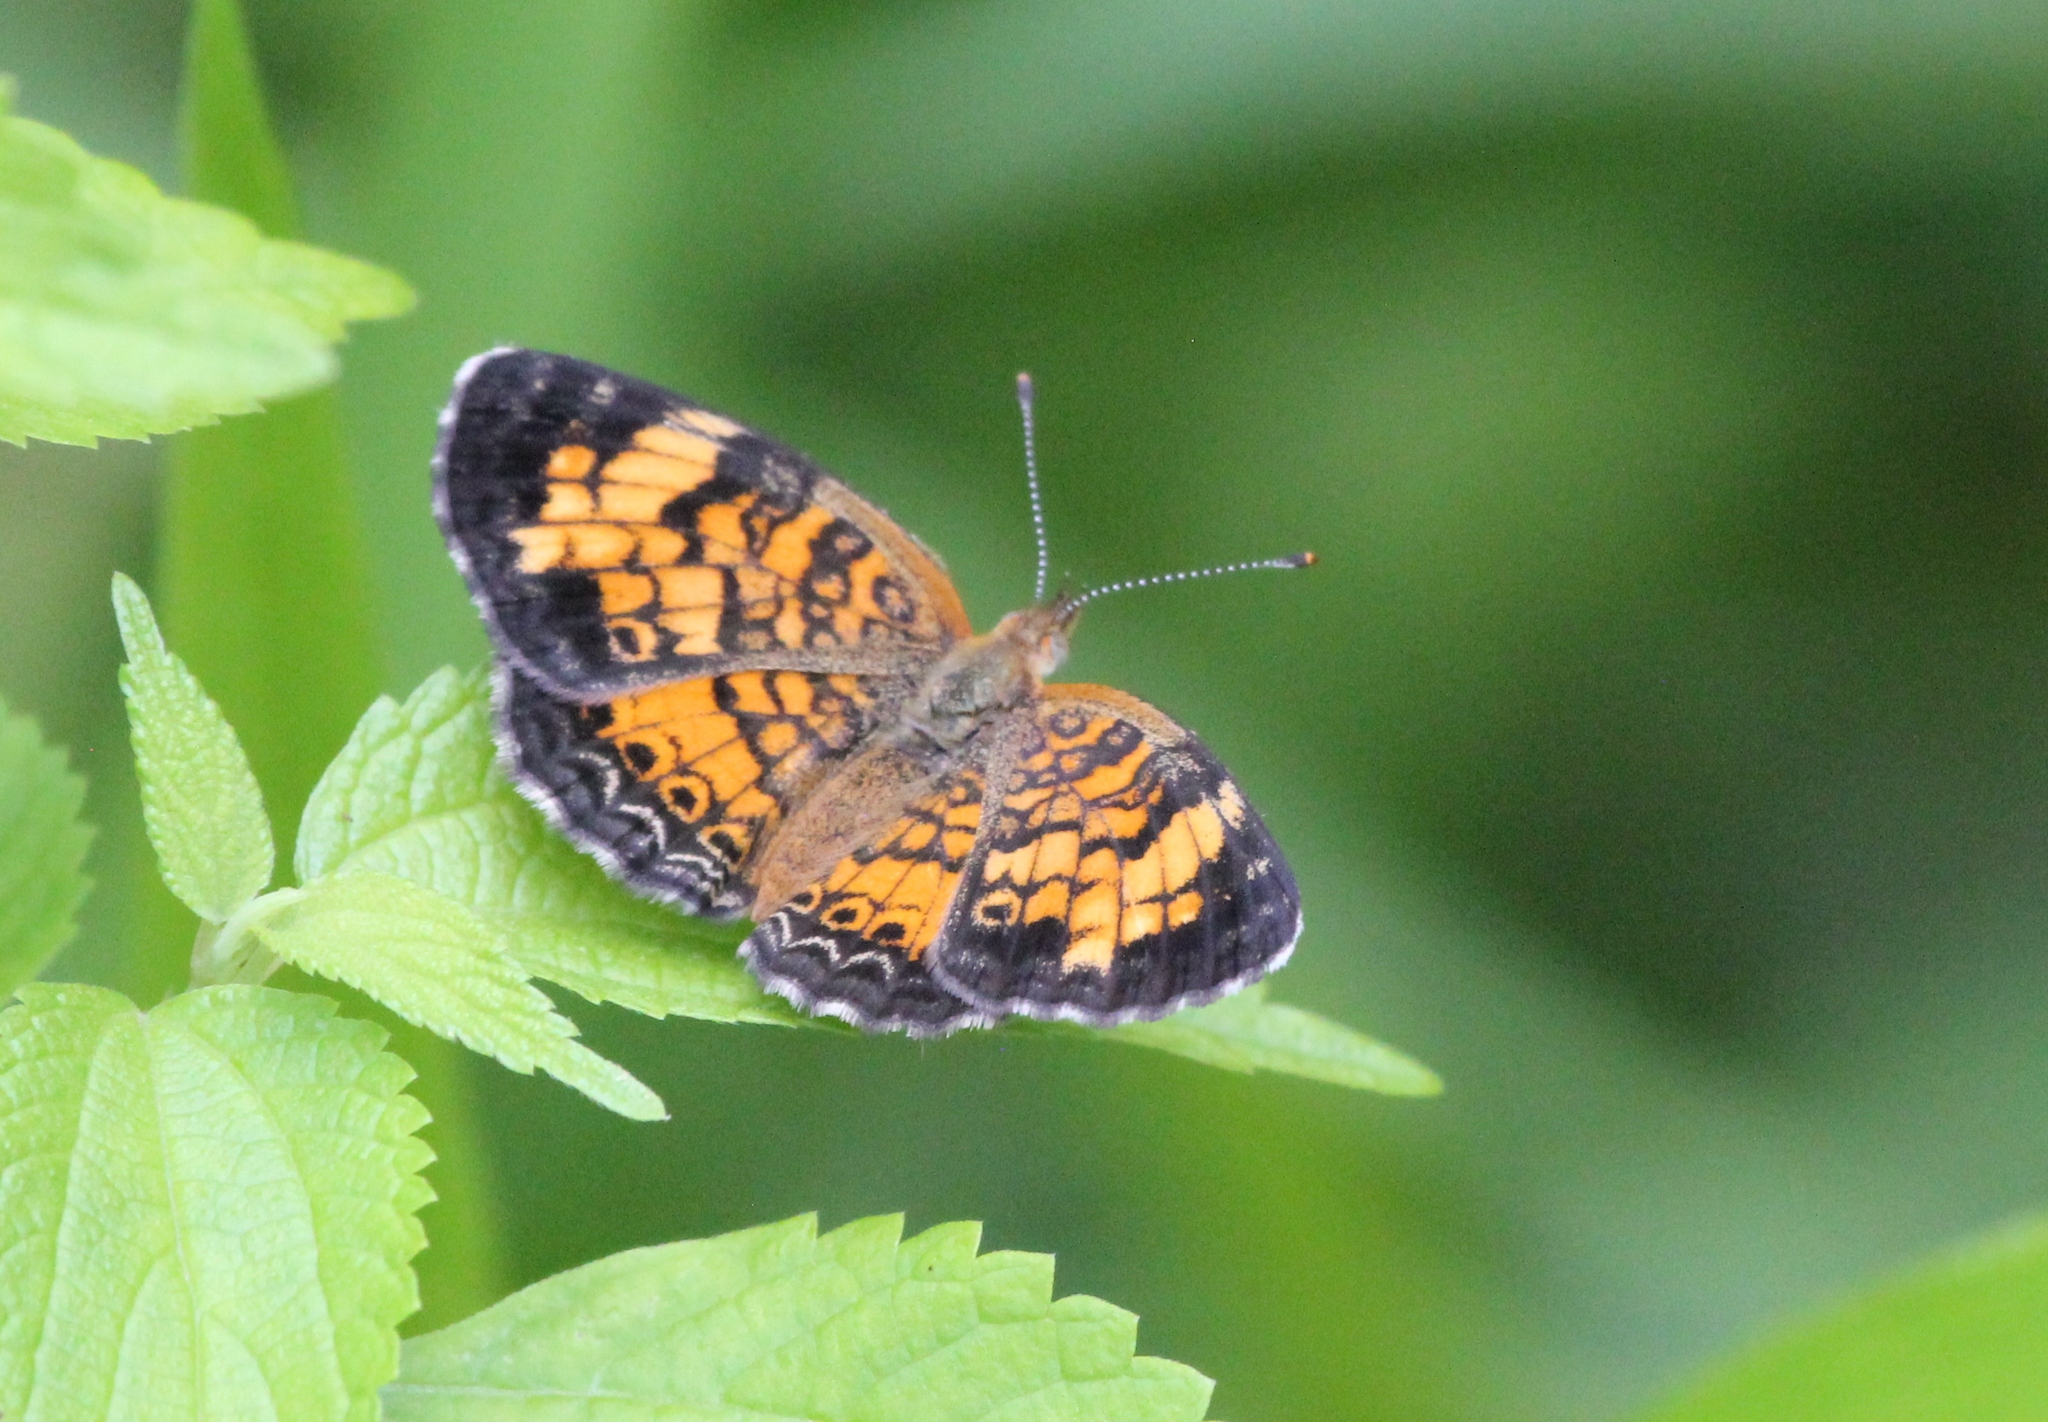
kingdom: Animalia
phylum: Arthropoda
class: Insecta
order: Lepidoptera
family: Nymphalidae
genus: Phyciodes
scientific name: Phyciodes tharos
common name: Pearl crescent
